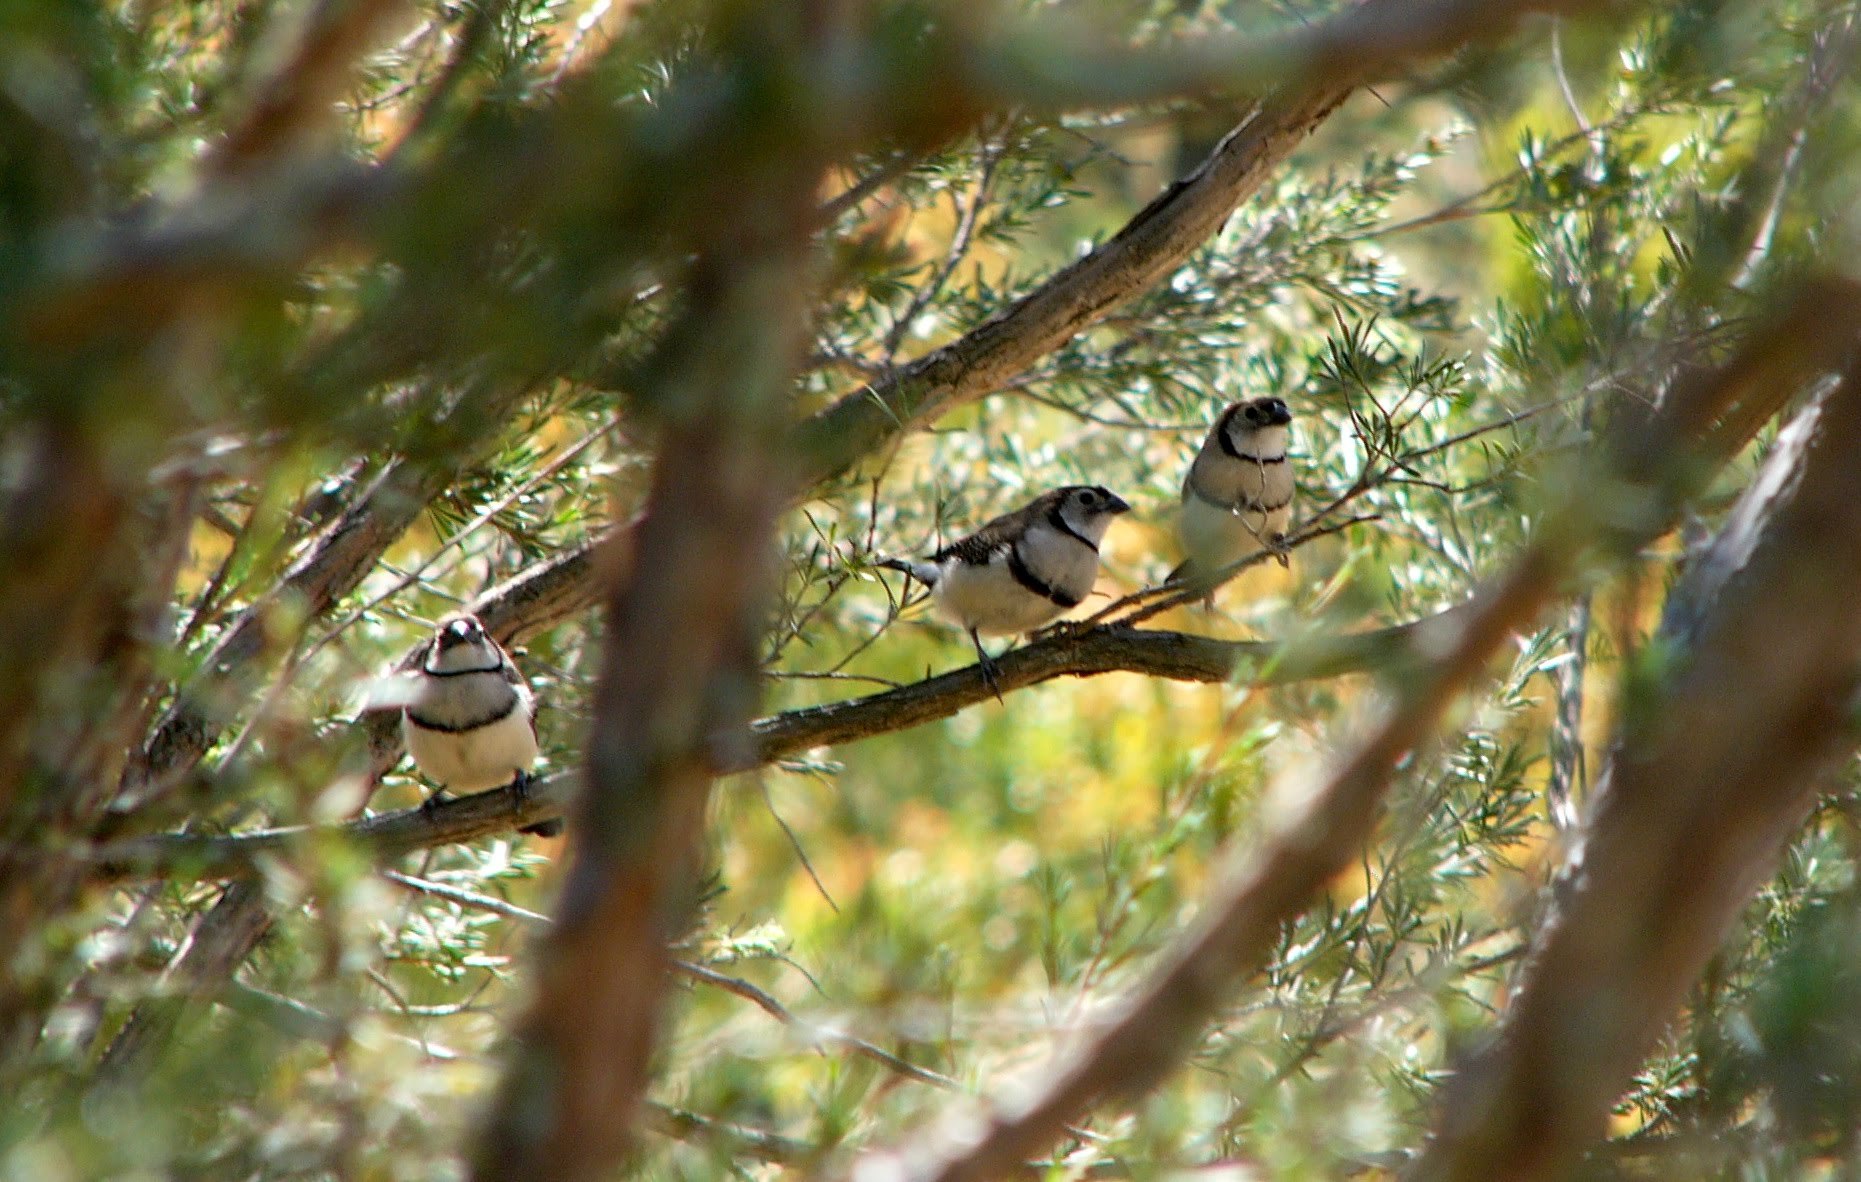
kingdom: Animalia
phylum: Chordata
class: Aves
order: Passeriformes
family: Estrildidae
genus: Taeniopygia
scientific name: Taeniopygia bichenovii
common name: Double-barred finch
